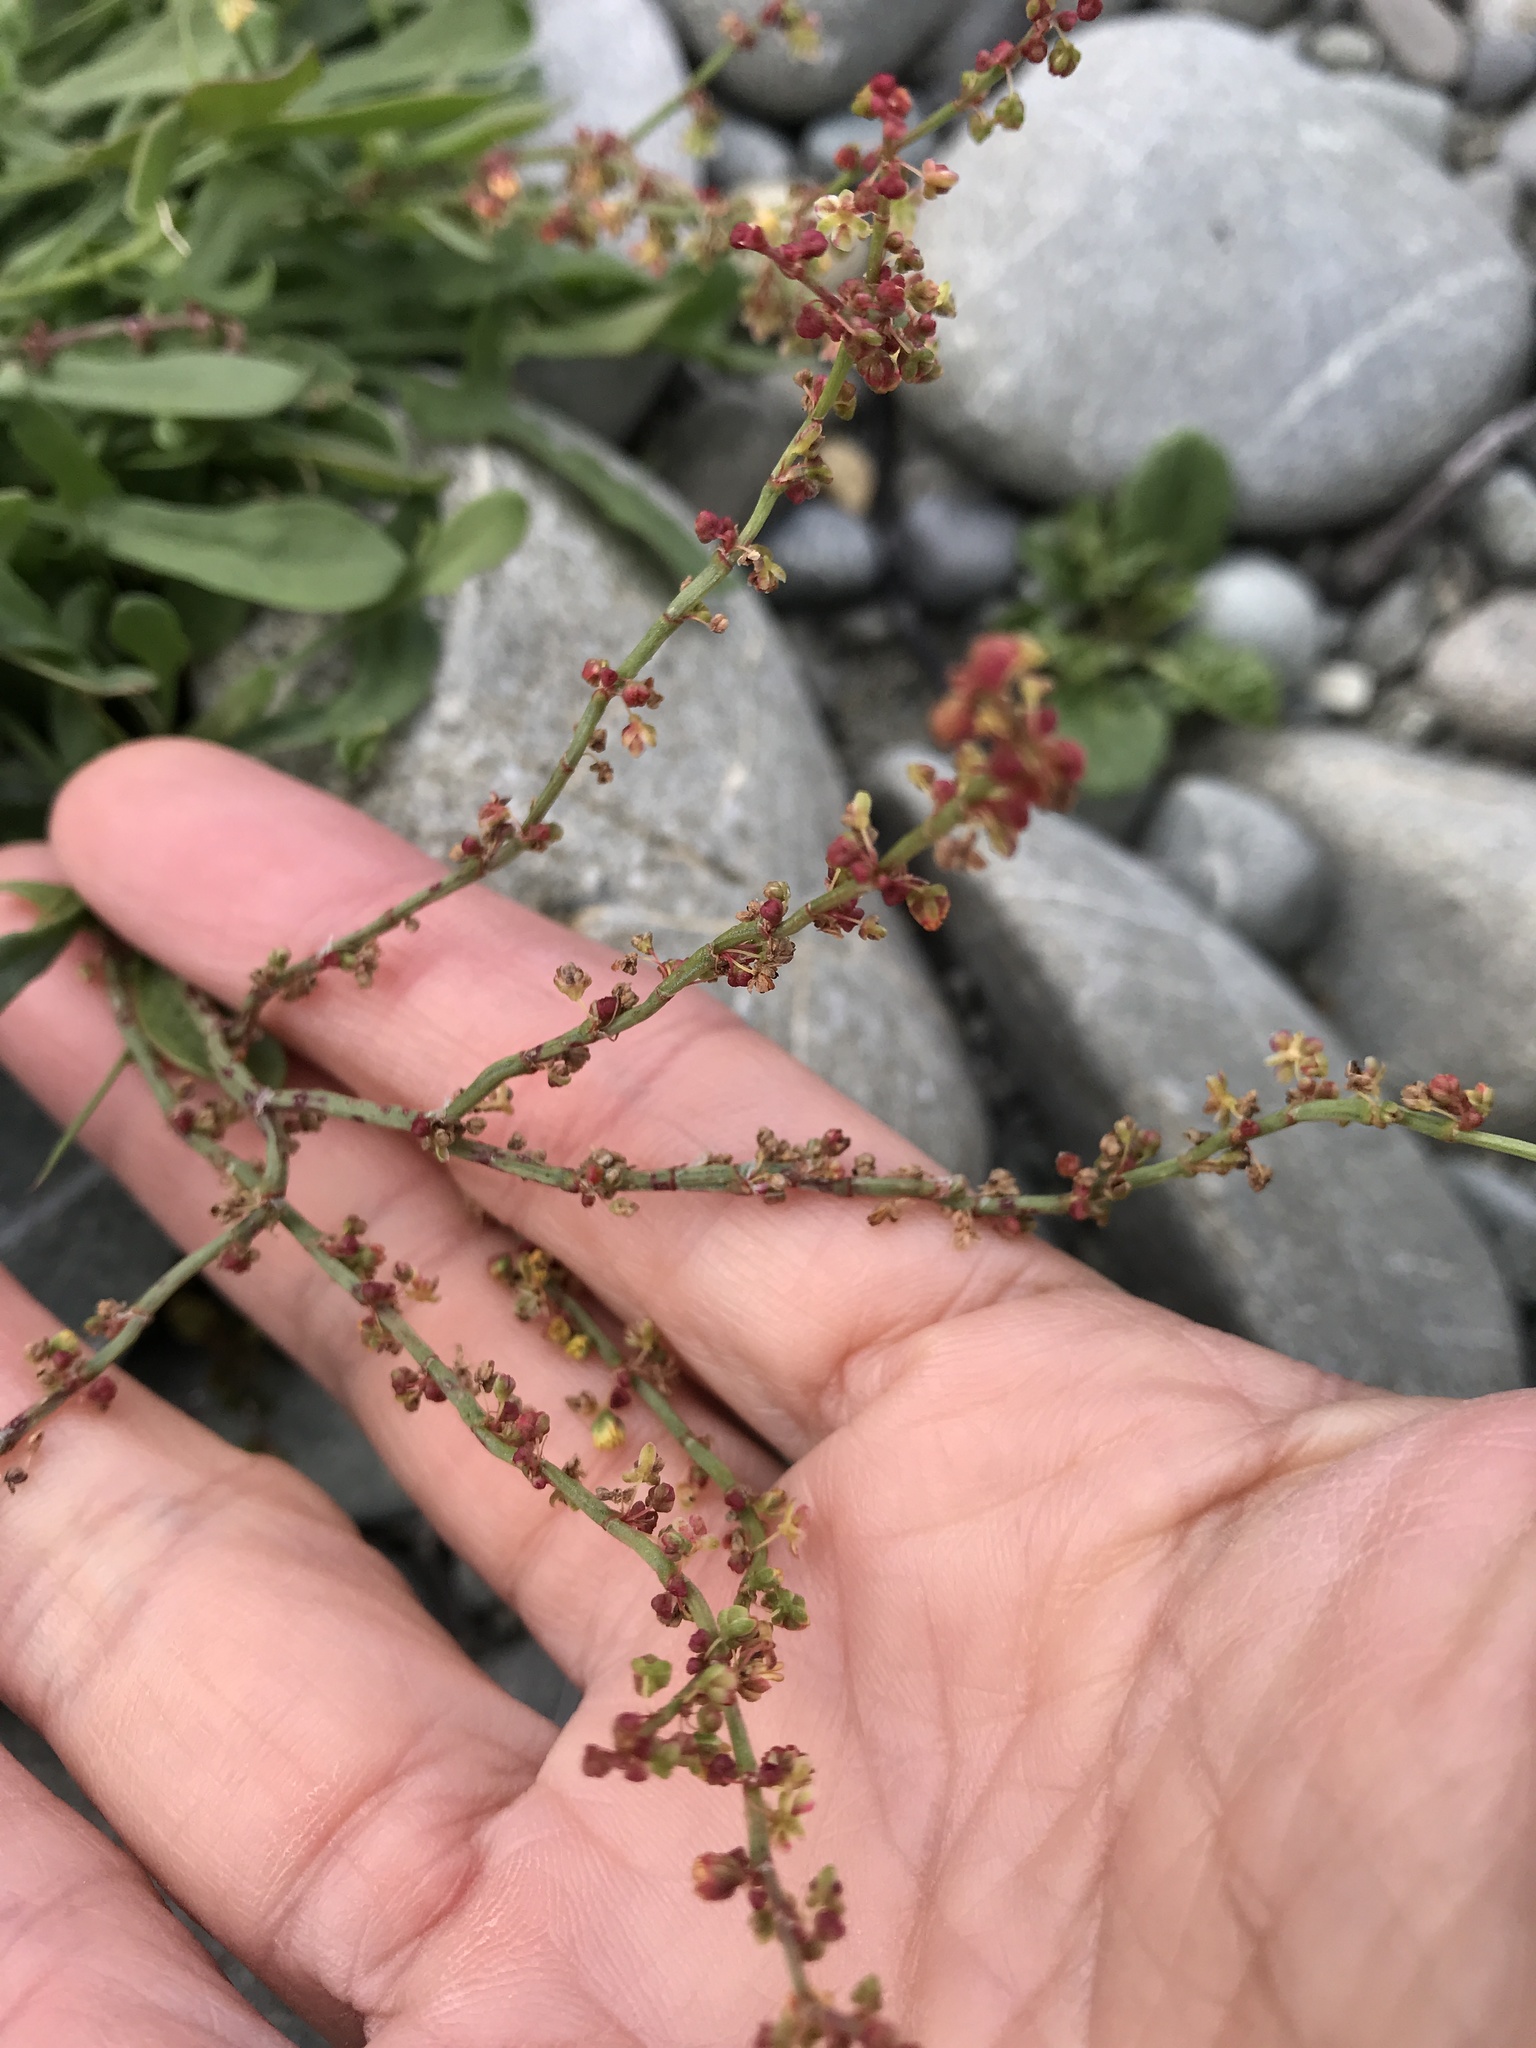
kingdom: Plantae
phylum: Tracheophyta
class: Magnoliopsida
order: Caryophyllales
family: Polygonaceae
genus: Rumex
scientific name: Rumex acetosella
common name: Common sheep sorrel
